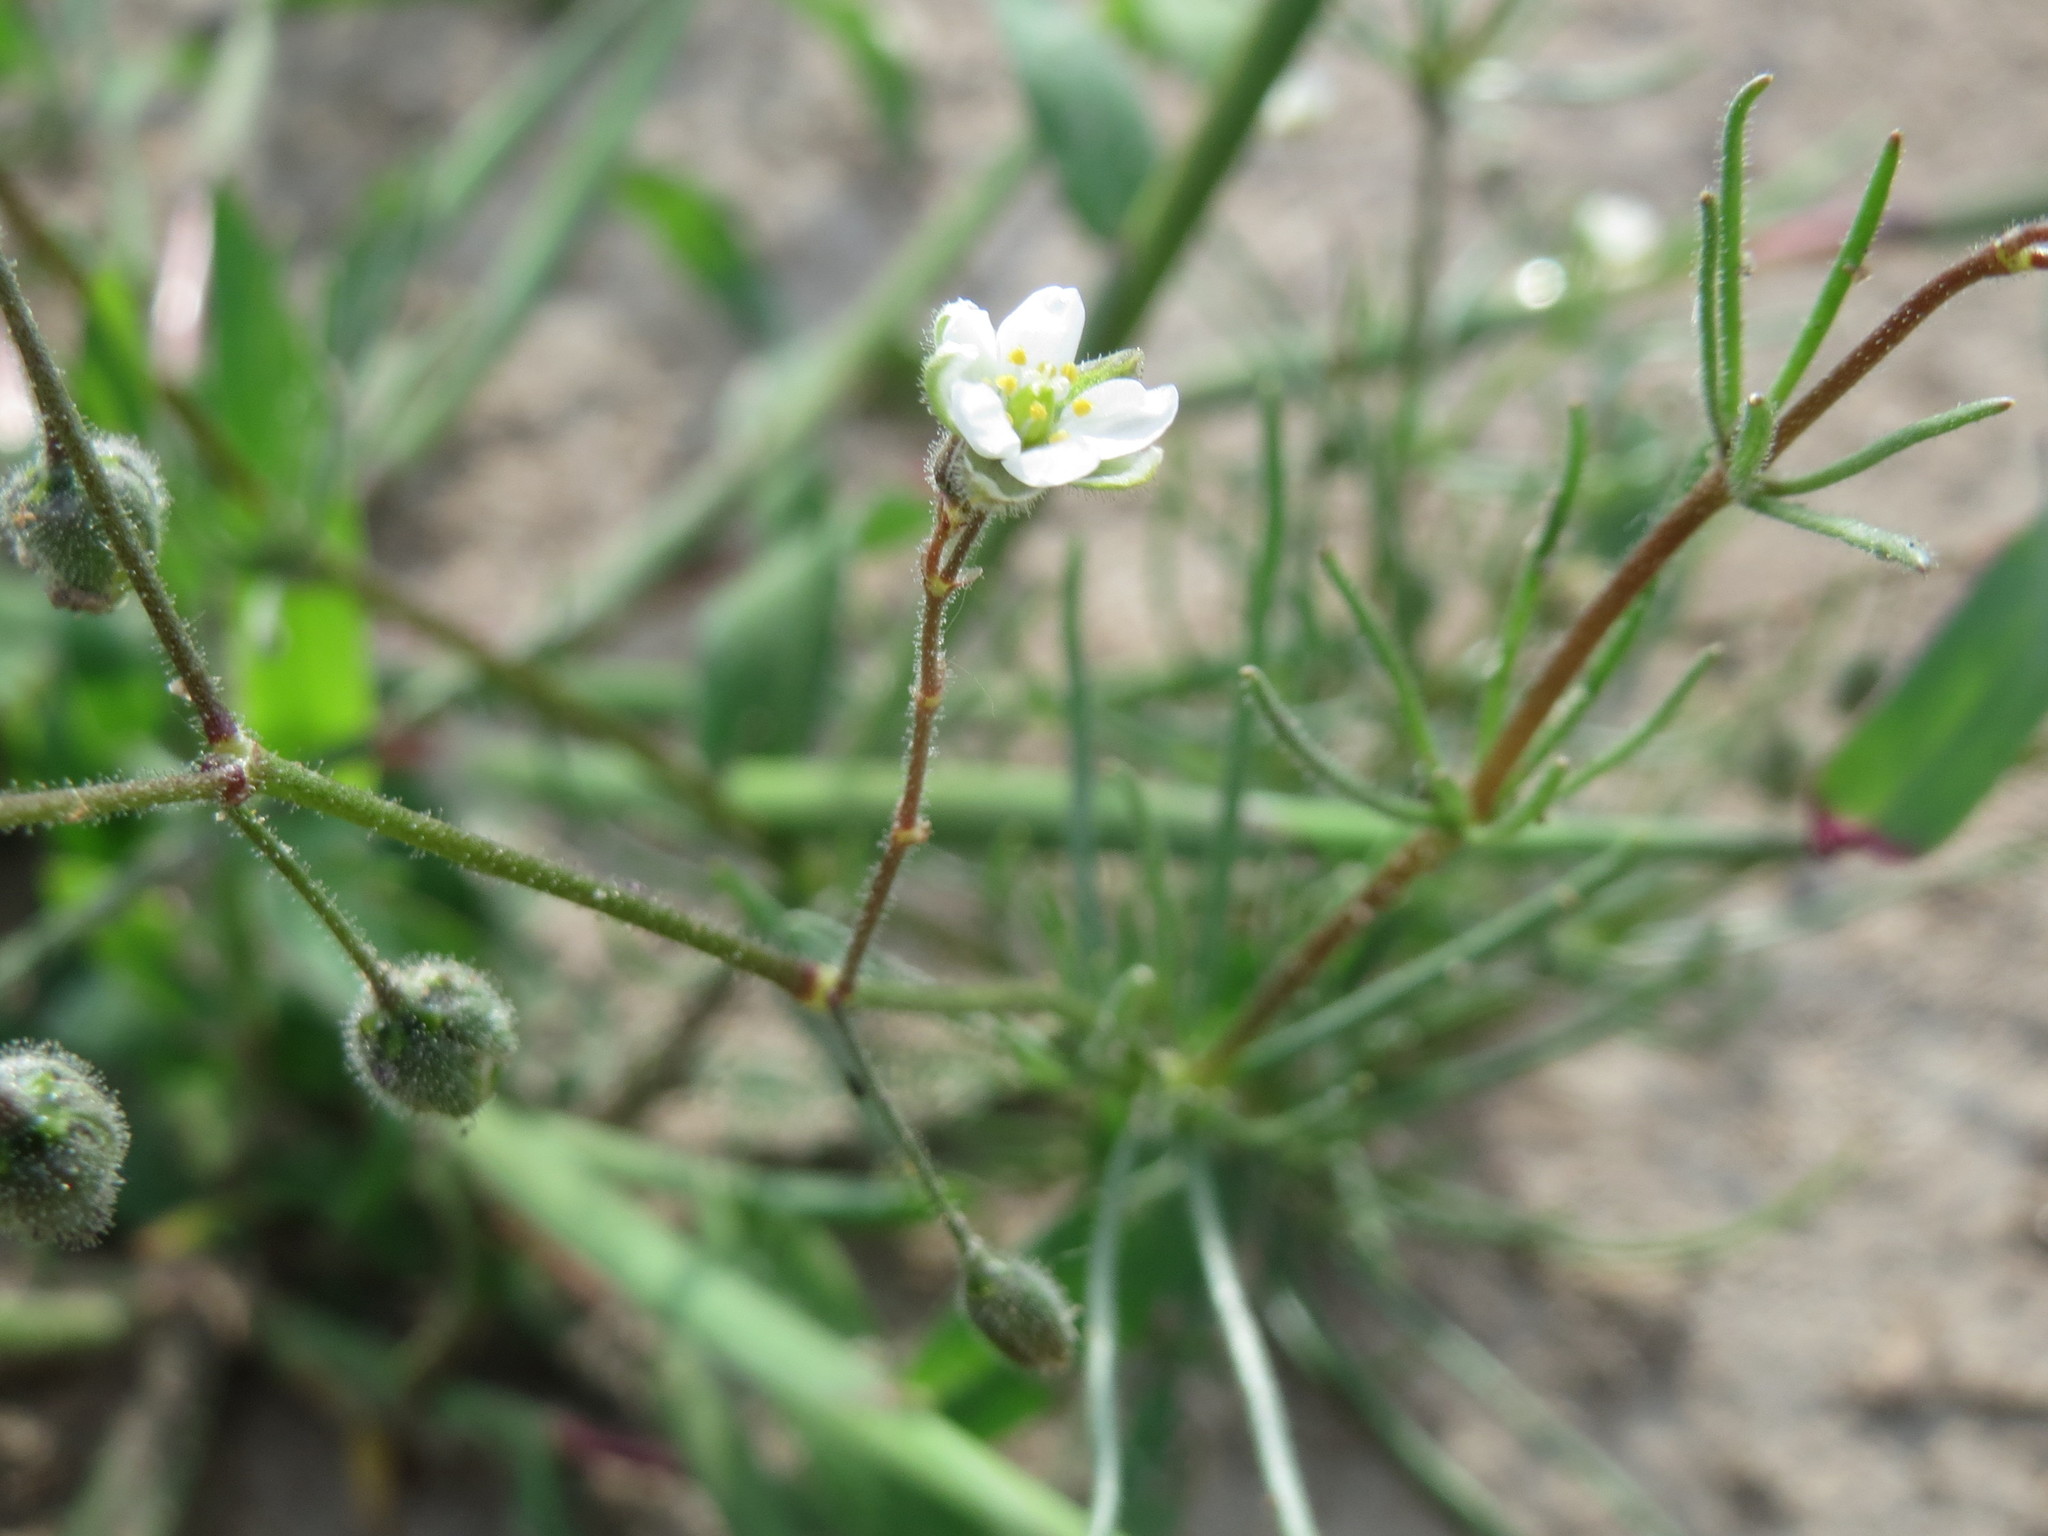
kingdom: Plantae
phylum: Tracheophyta
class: Magnoliopsida
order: Caryophyllales
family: Caryophyllaceae
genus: Spergula
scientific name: Spergula arvensis
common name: Corn spurrey
